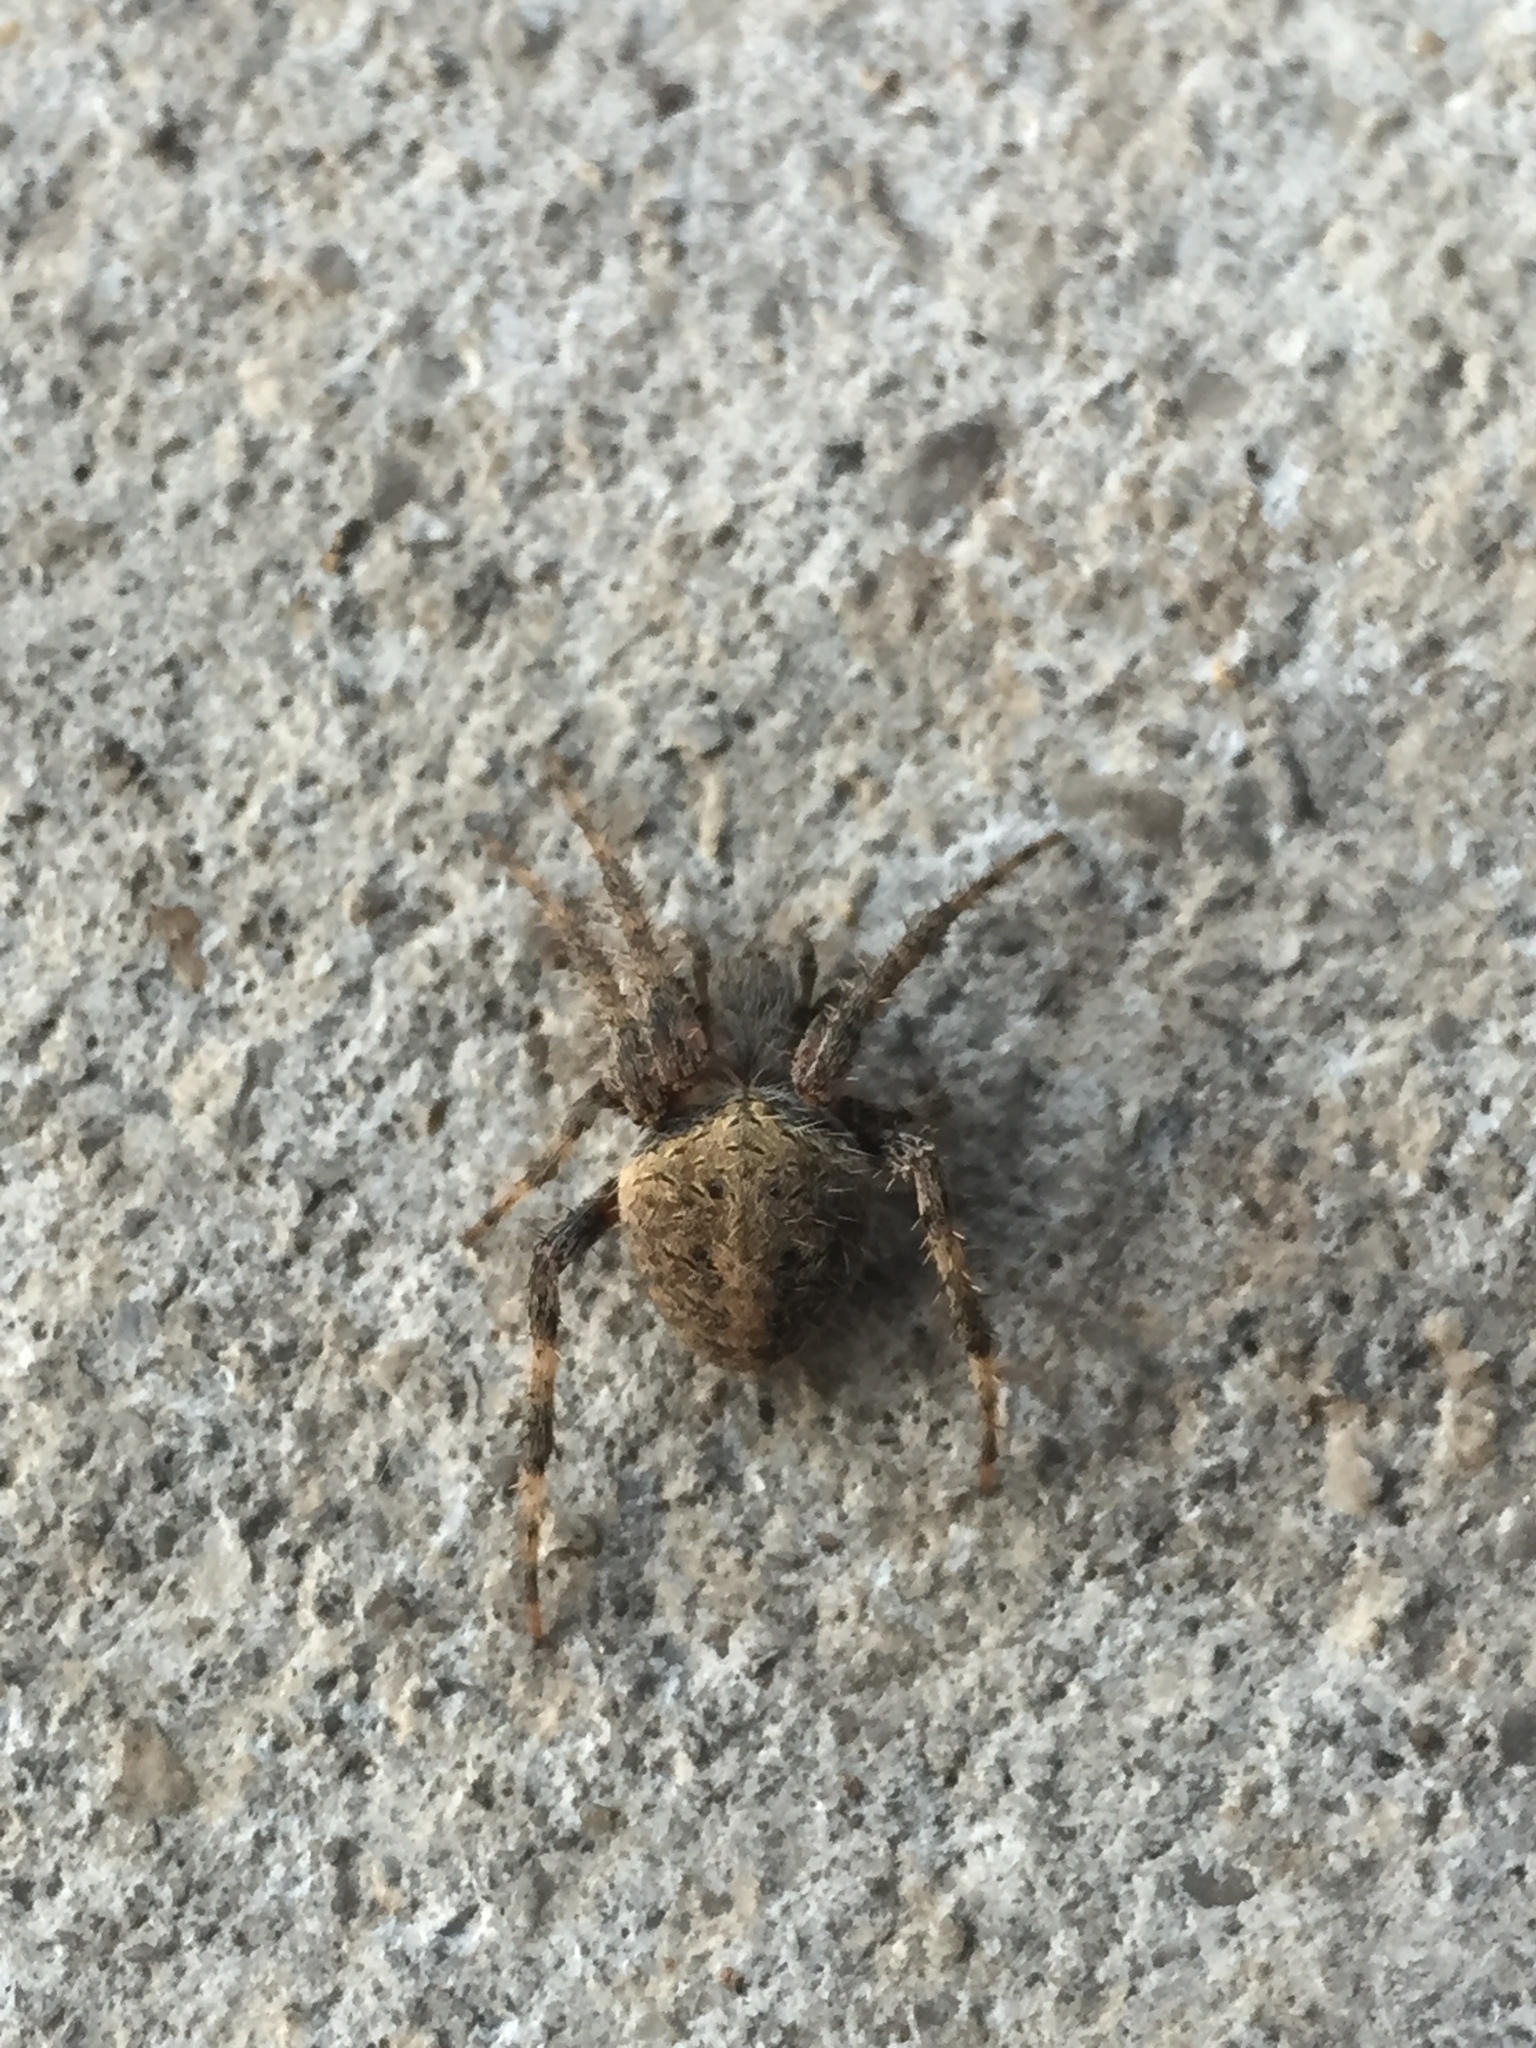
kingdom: Animalia
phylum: Arthropoda
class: Arachnida
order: Araneae
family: Araneidae
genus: Neoscona
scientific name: Neoscona crucifera
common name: Spotted orbweaver
